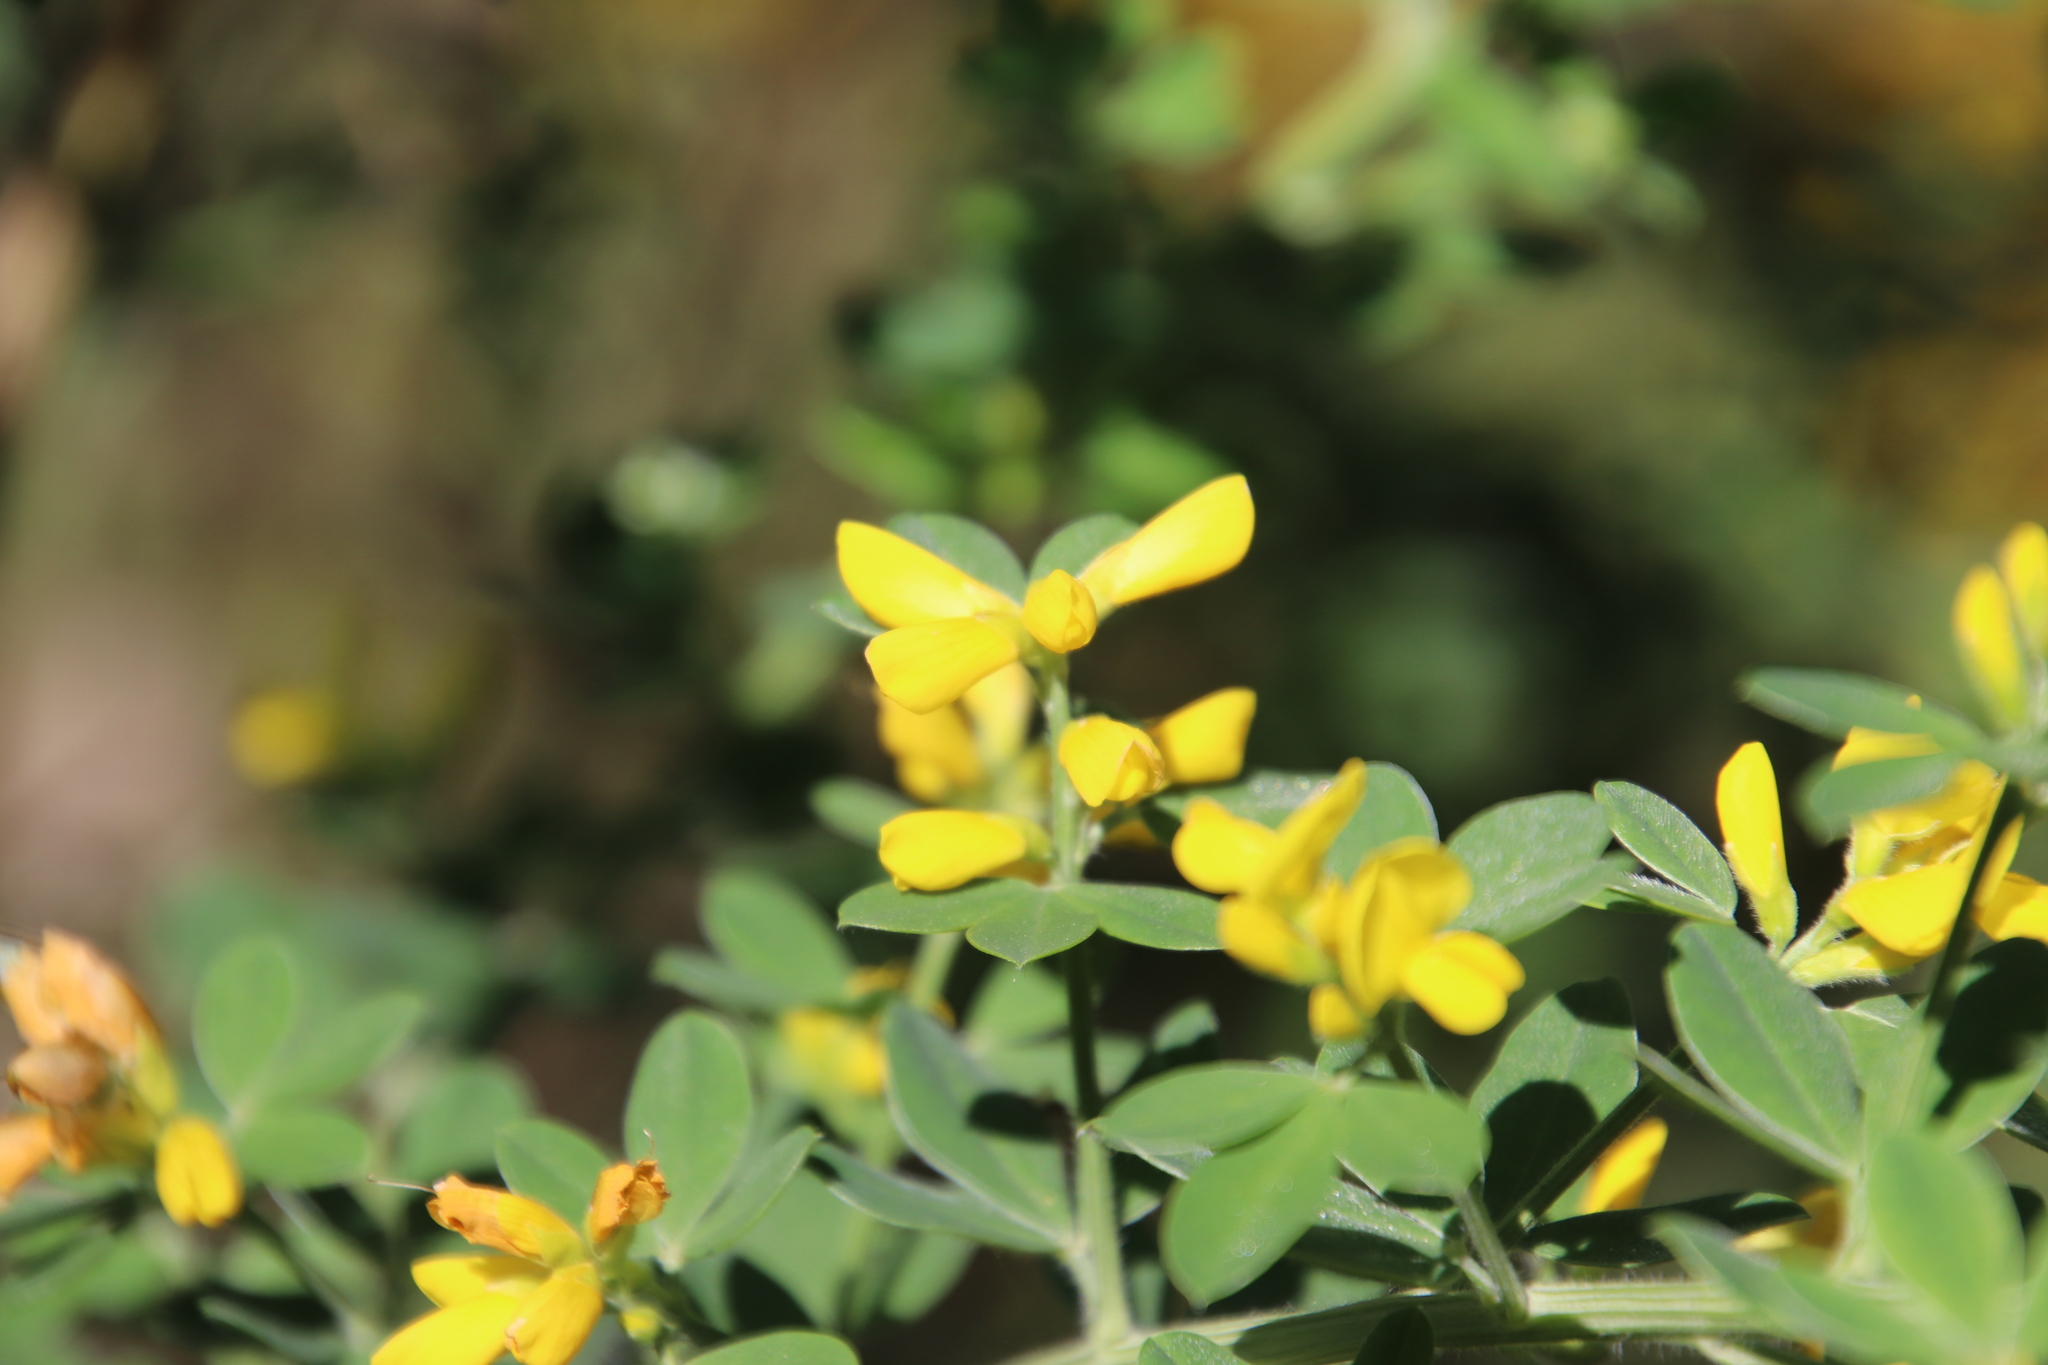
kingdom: Plantae
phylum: Tracheophyta
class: Magnoliopsida
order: Fabales
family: Fabaceae
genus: Genista
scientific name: Genista monspessulana
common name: Montpellier broom
